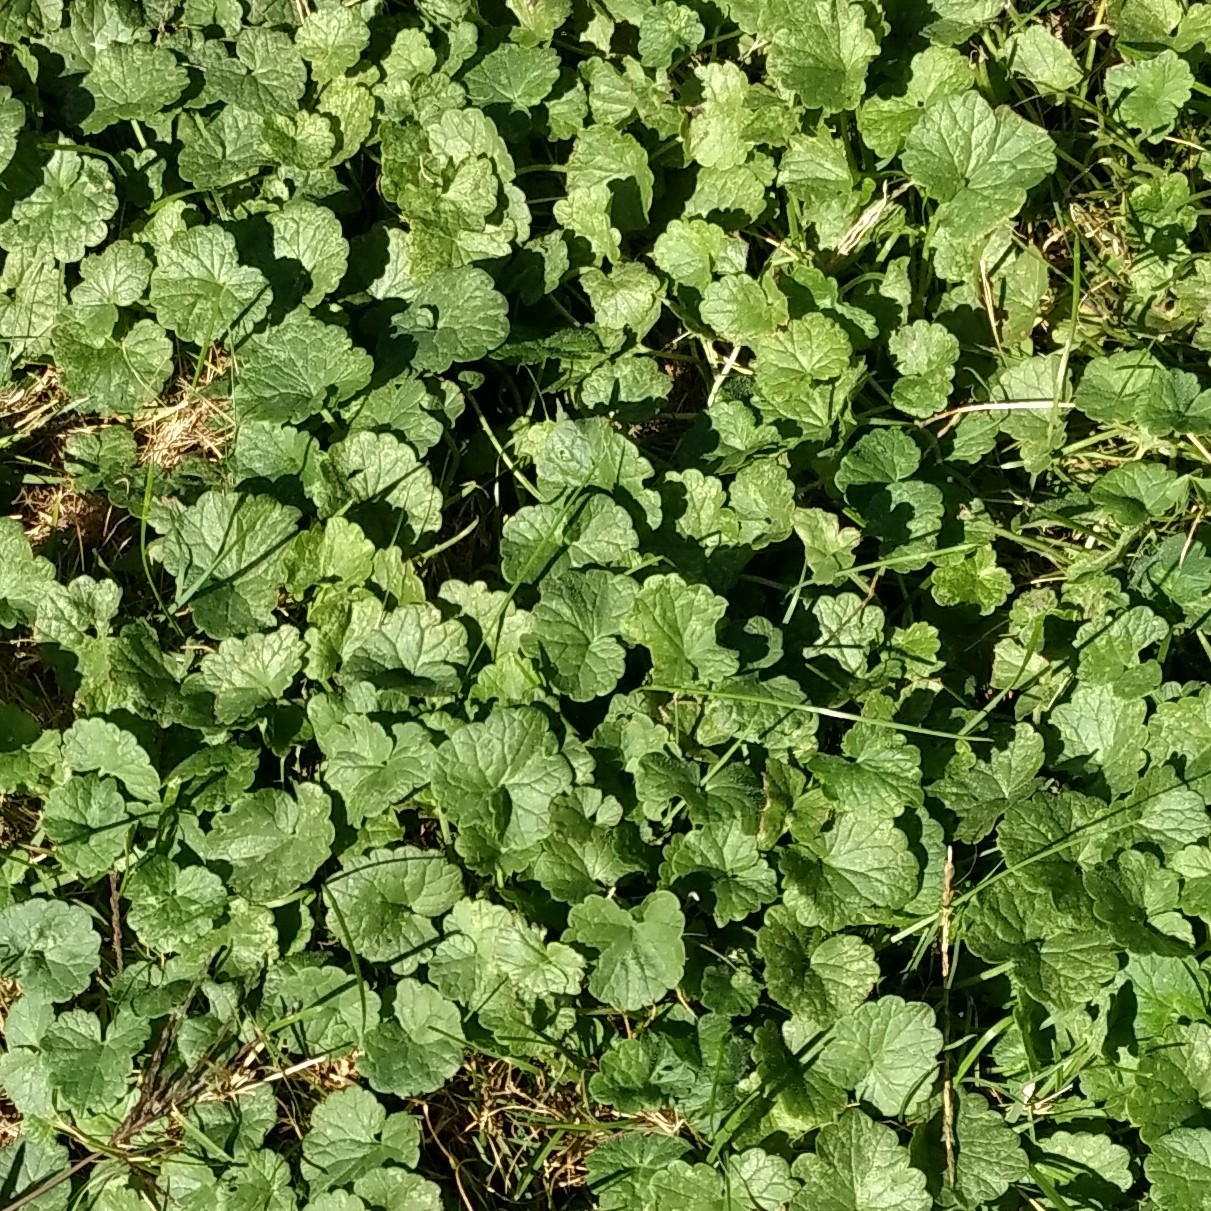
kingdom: Plantae
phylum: Tracheophyta
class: Magnoliopsida
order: Lamiales
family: Lamiaceae
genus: Glechoma
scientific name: Glechoma hederacea
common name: Ground ivy
